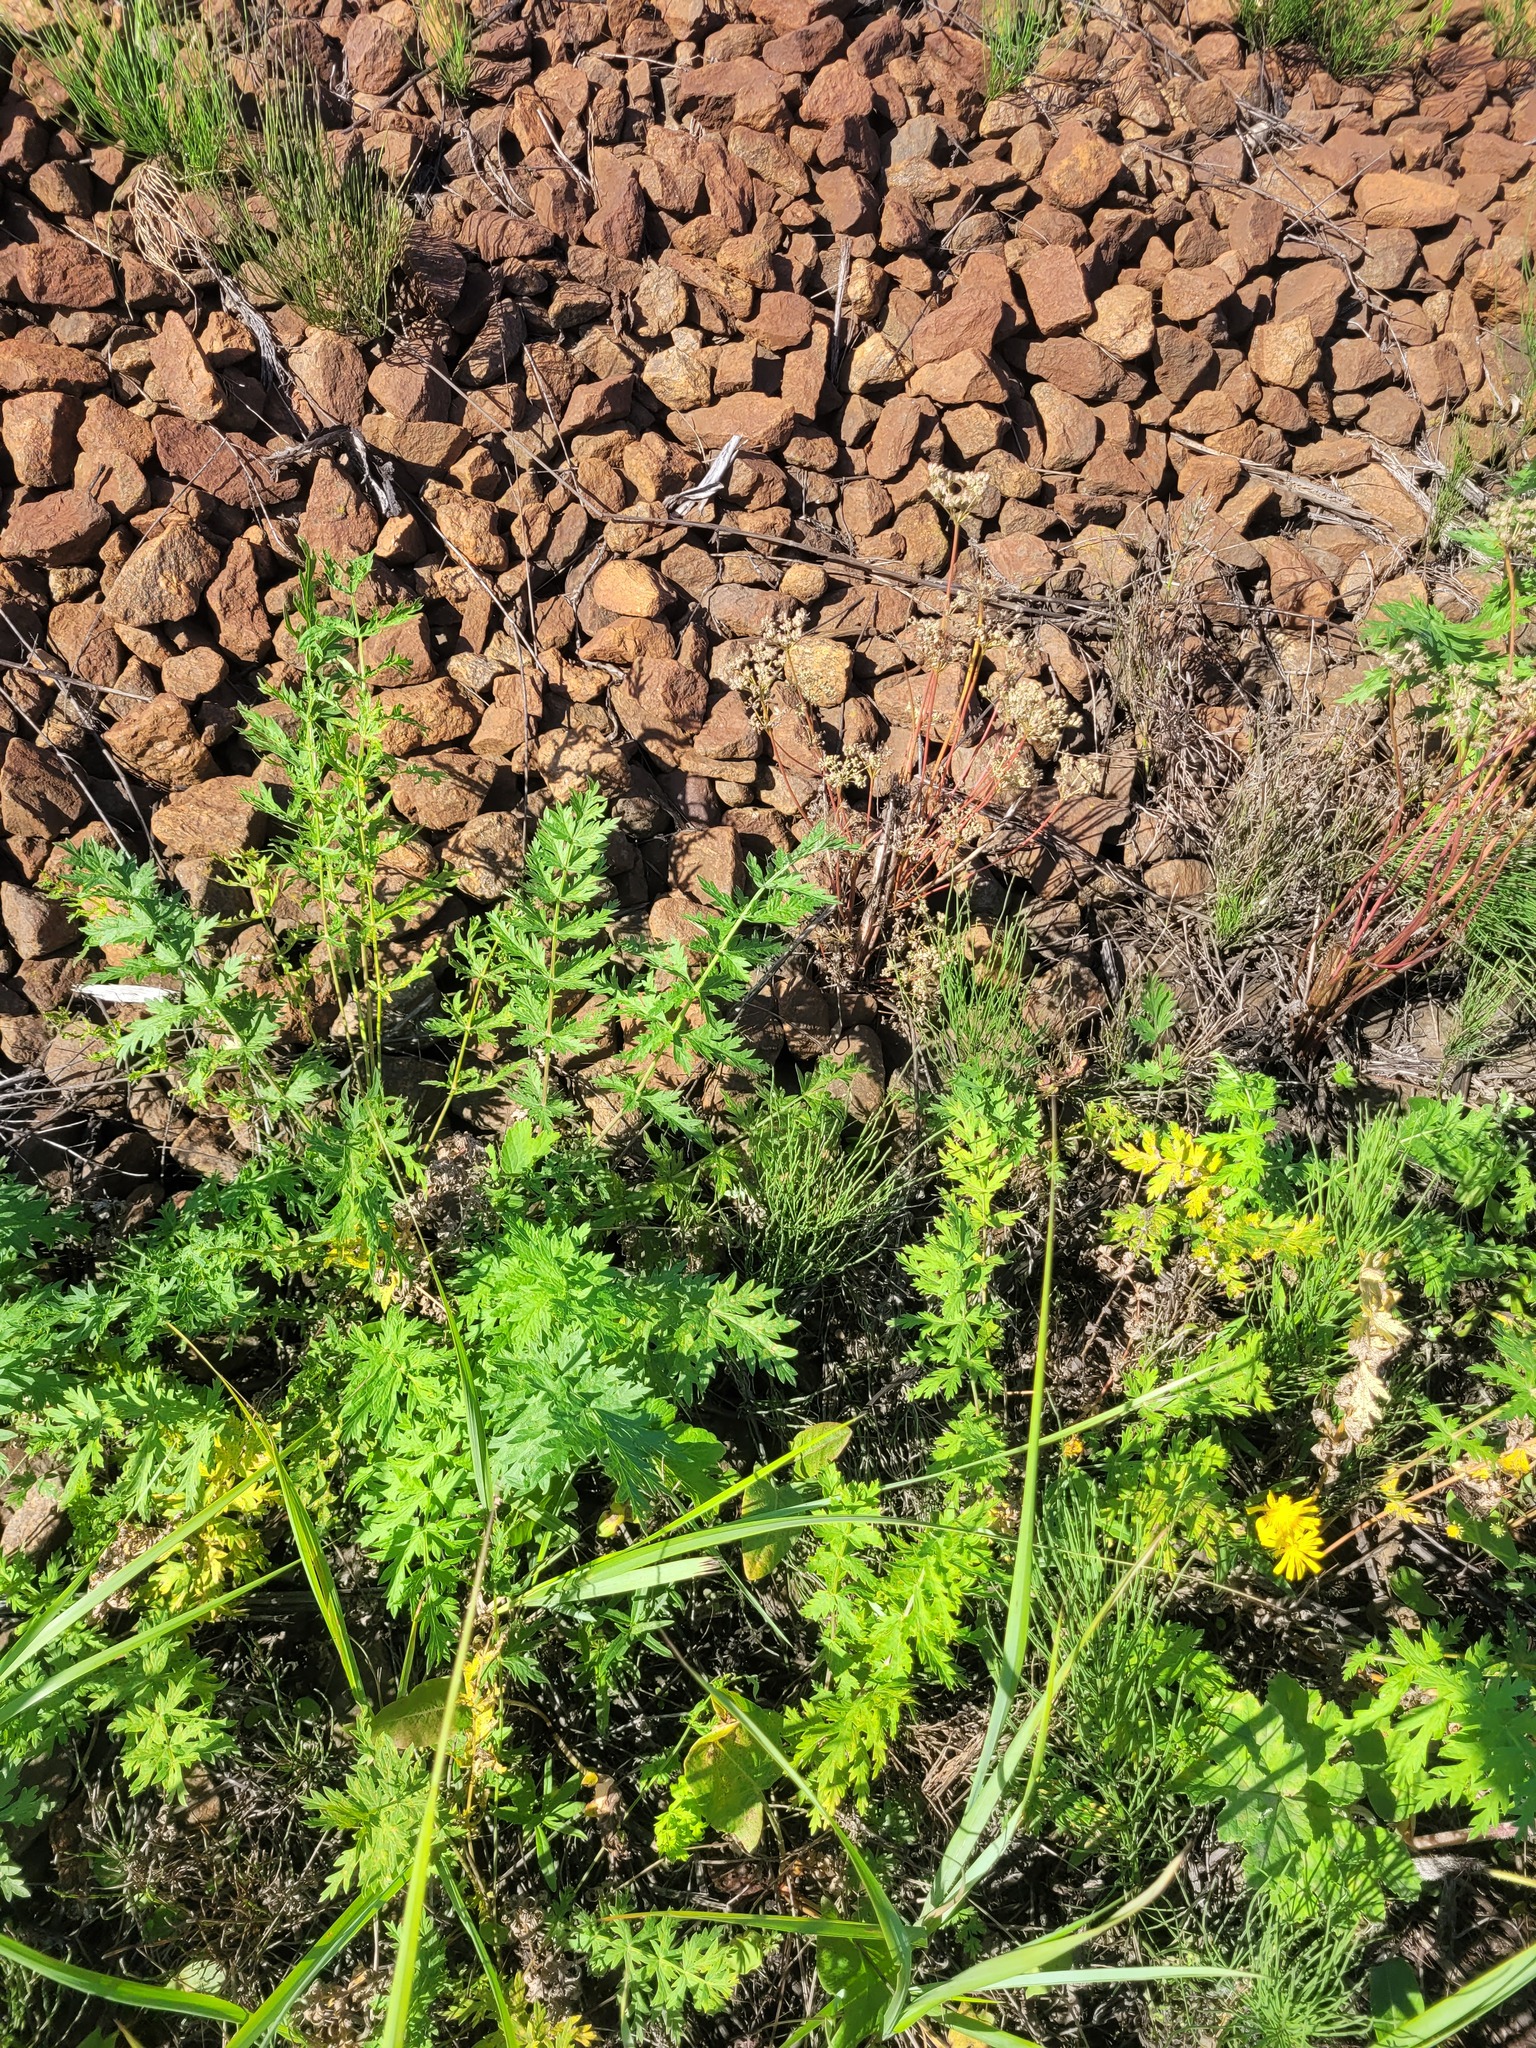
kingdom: Plantae
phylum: Tracheophyta
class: Magnoliopsida
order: Apiales
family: Apiaceae
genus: Seseli
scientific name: Seseli libanotis
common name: Mooncarrot
